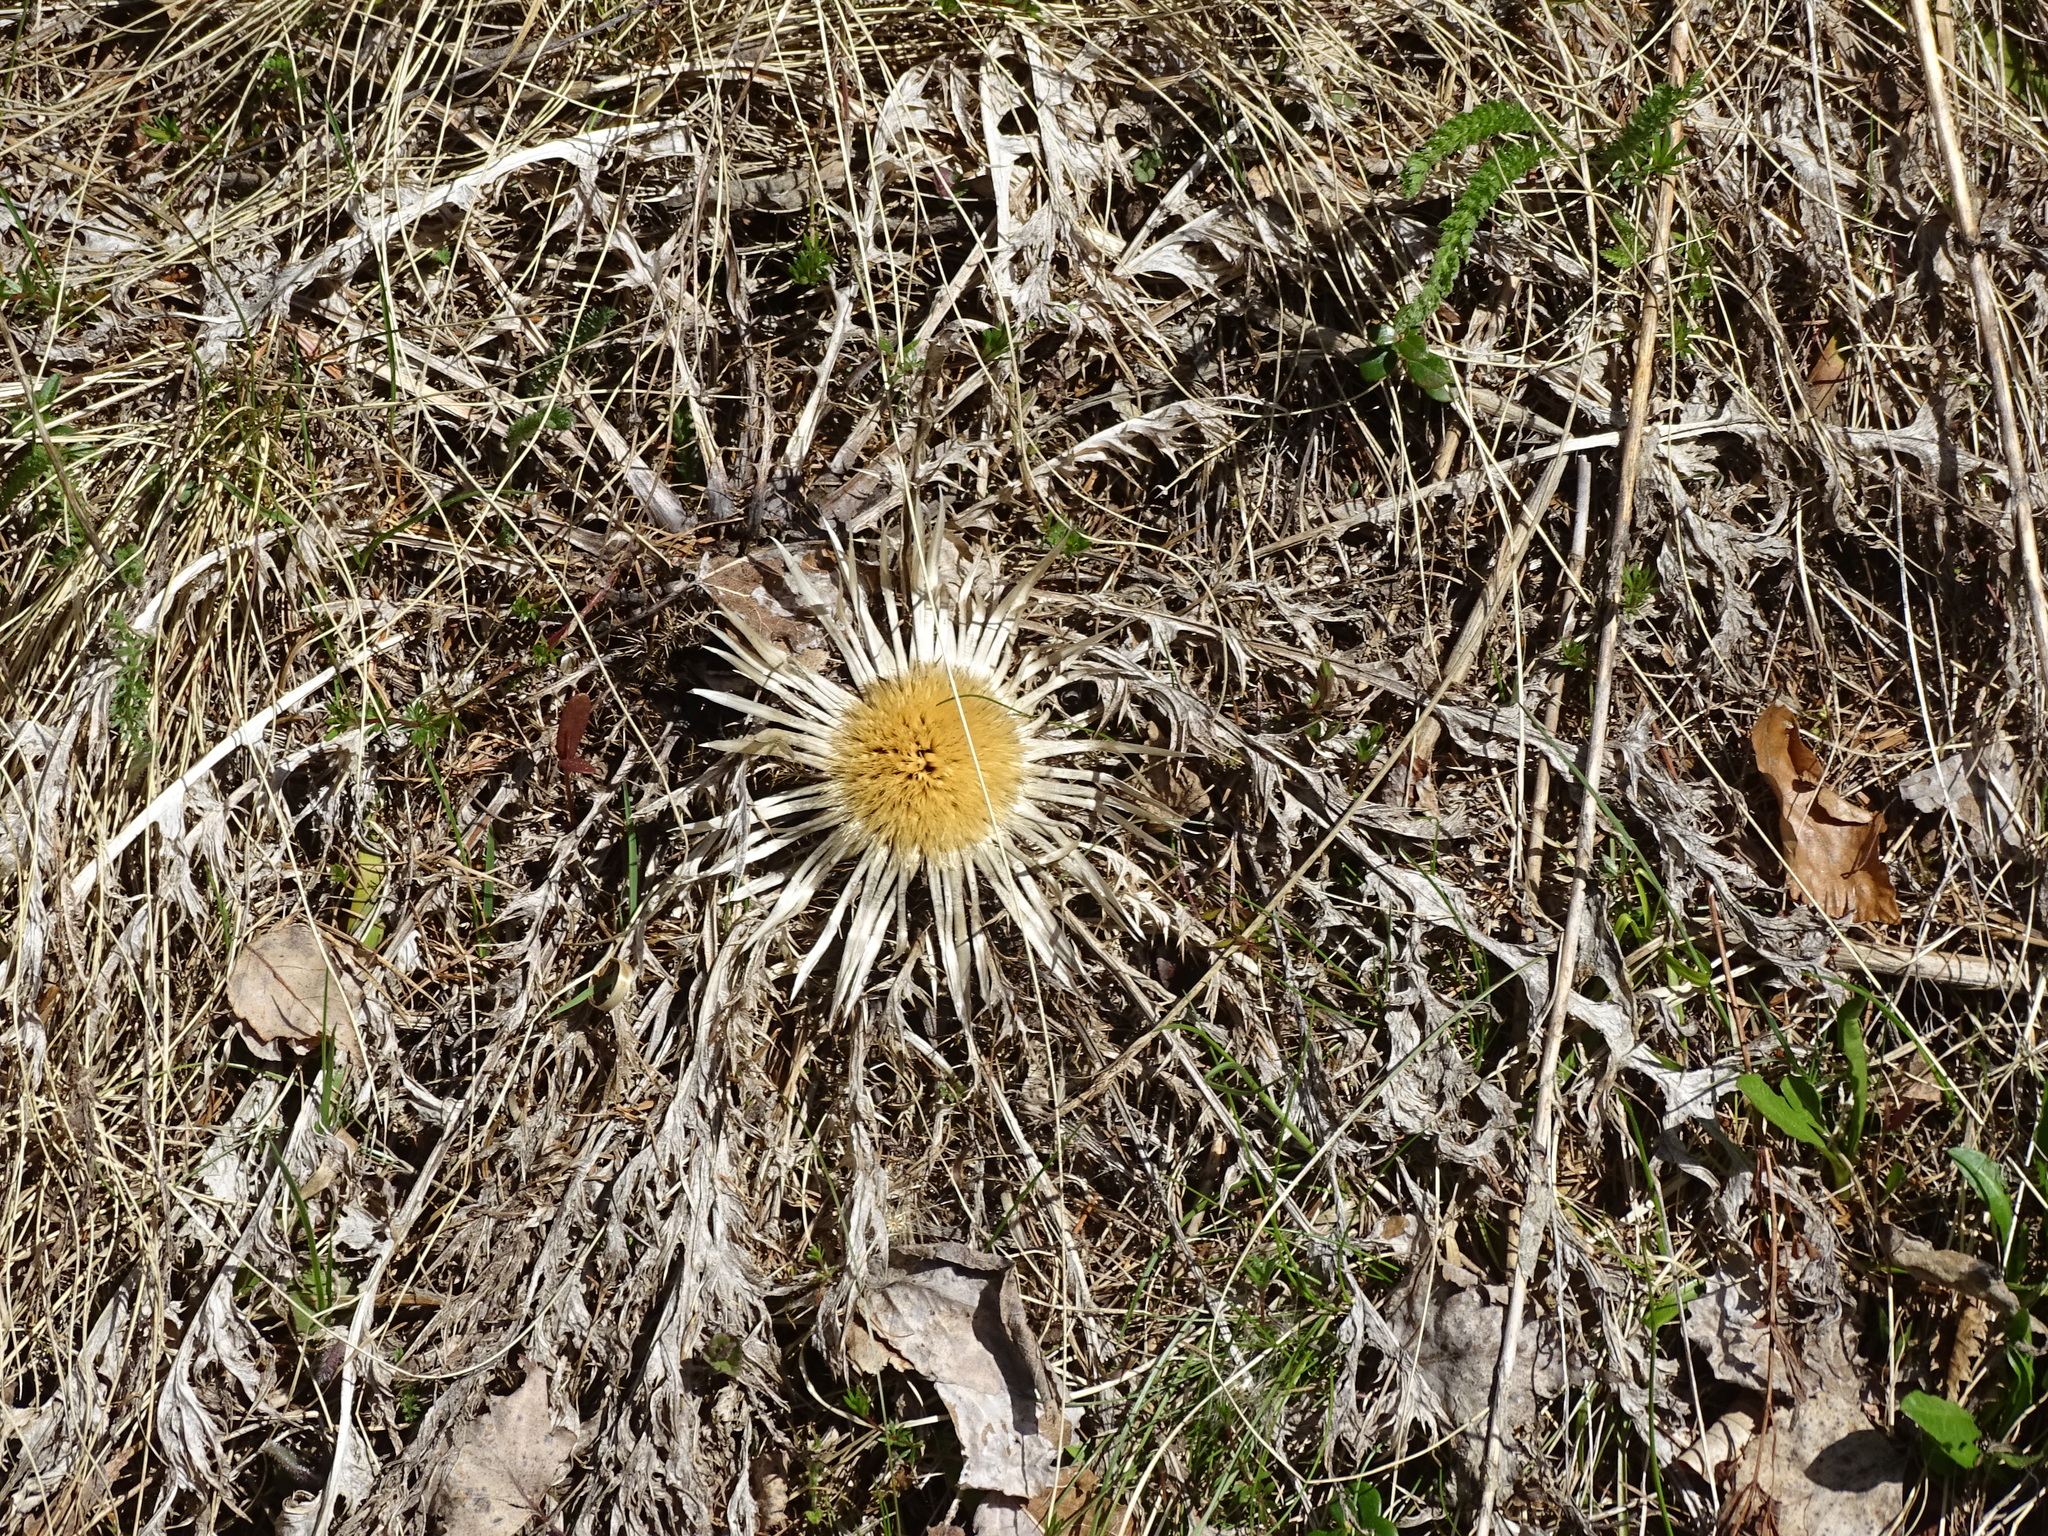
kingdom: Plantae
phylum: Tracheophyta
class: Magnoliopsida
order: Asterales
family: Asteraceae
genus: Carlina
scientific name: Carlina acaulis
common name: Stemless carline thistle
